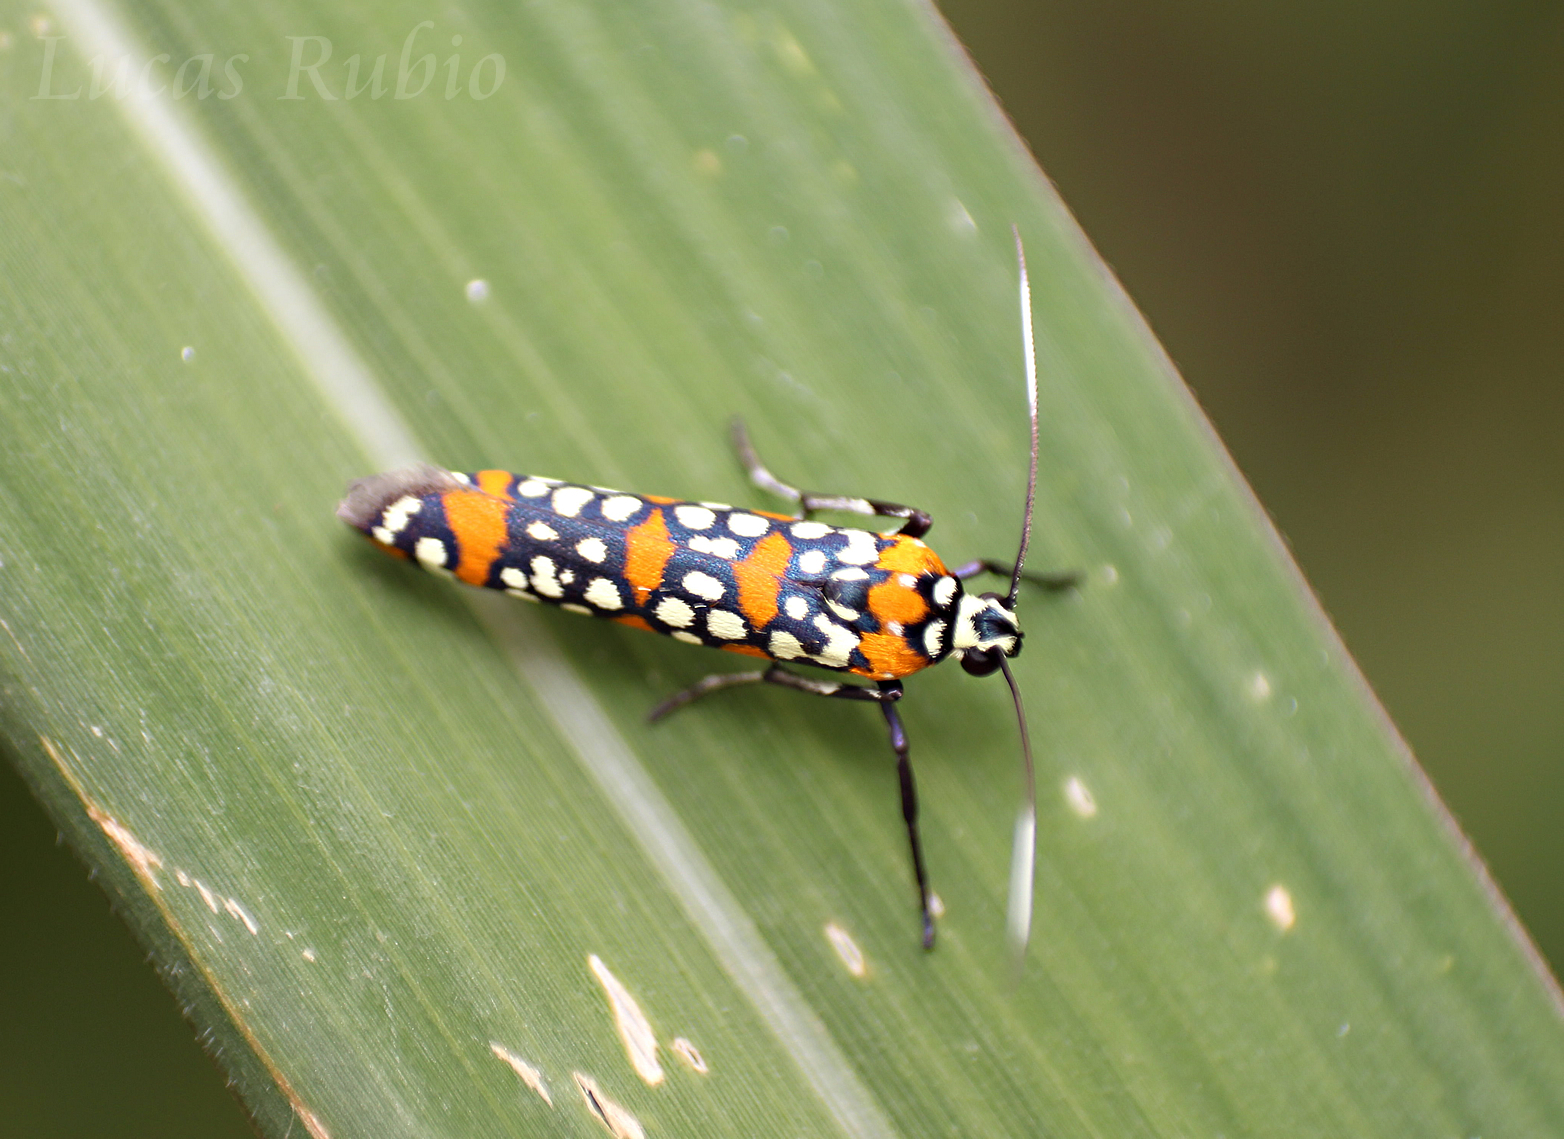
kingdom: Animalia
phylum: Arthropoda
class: Insecta
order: Lepidoptera
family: Attevidae
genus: Atteva
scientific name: Atteva punctella
